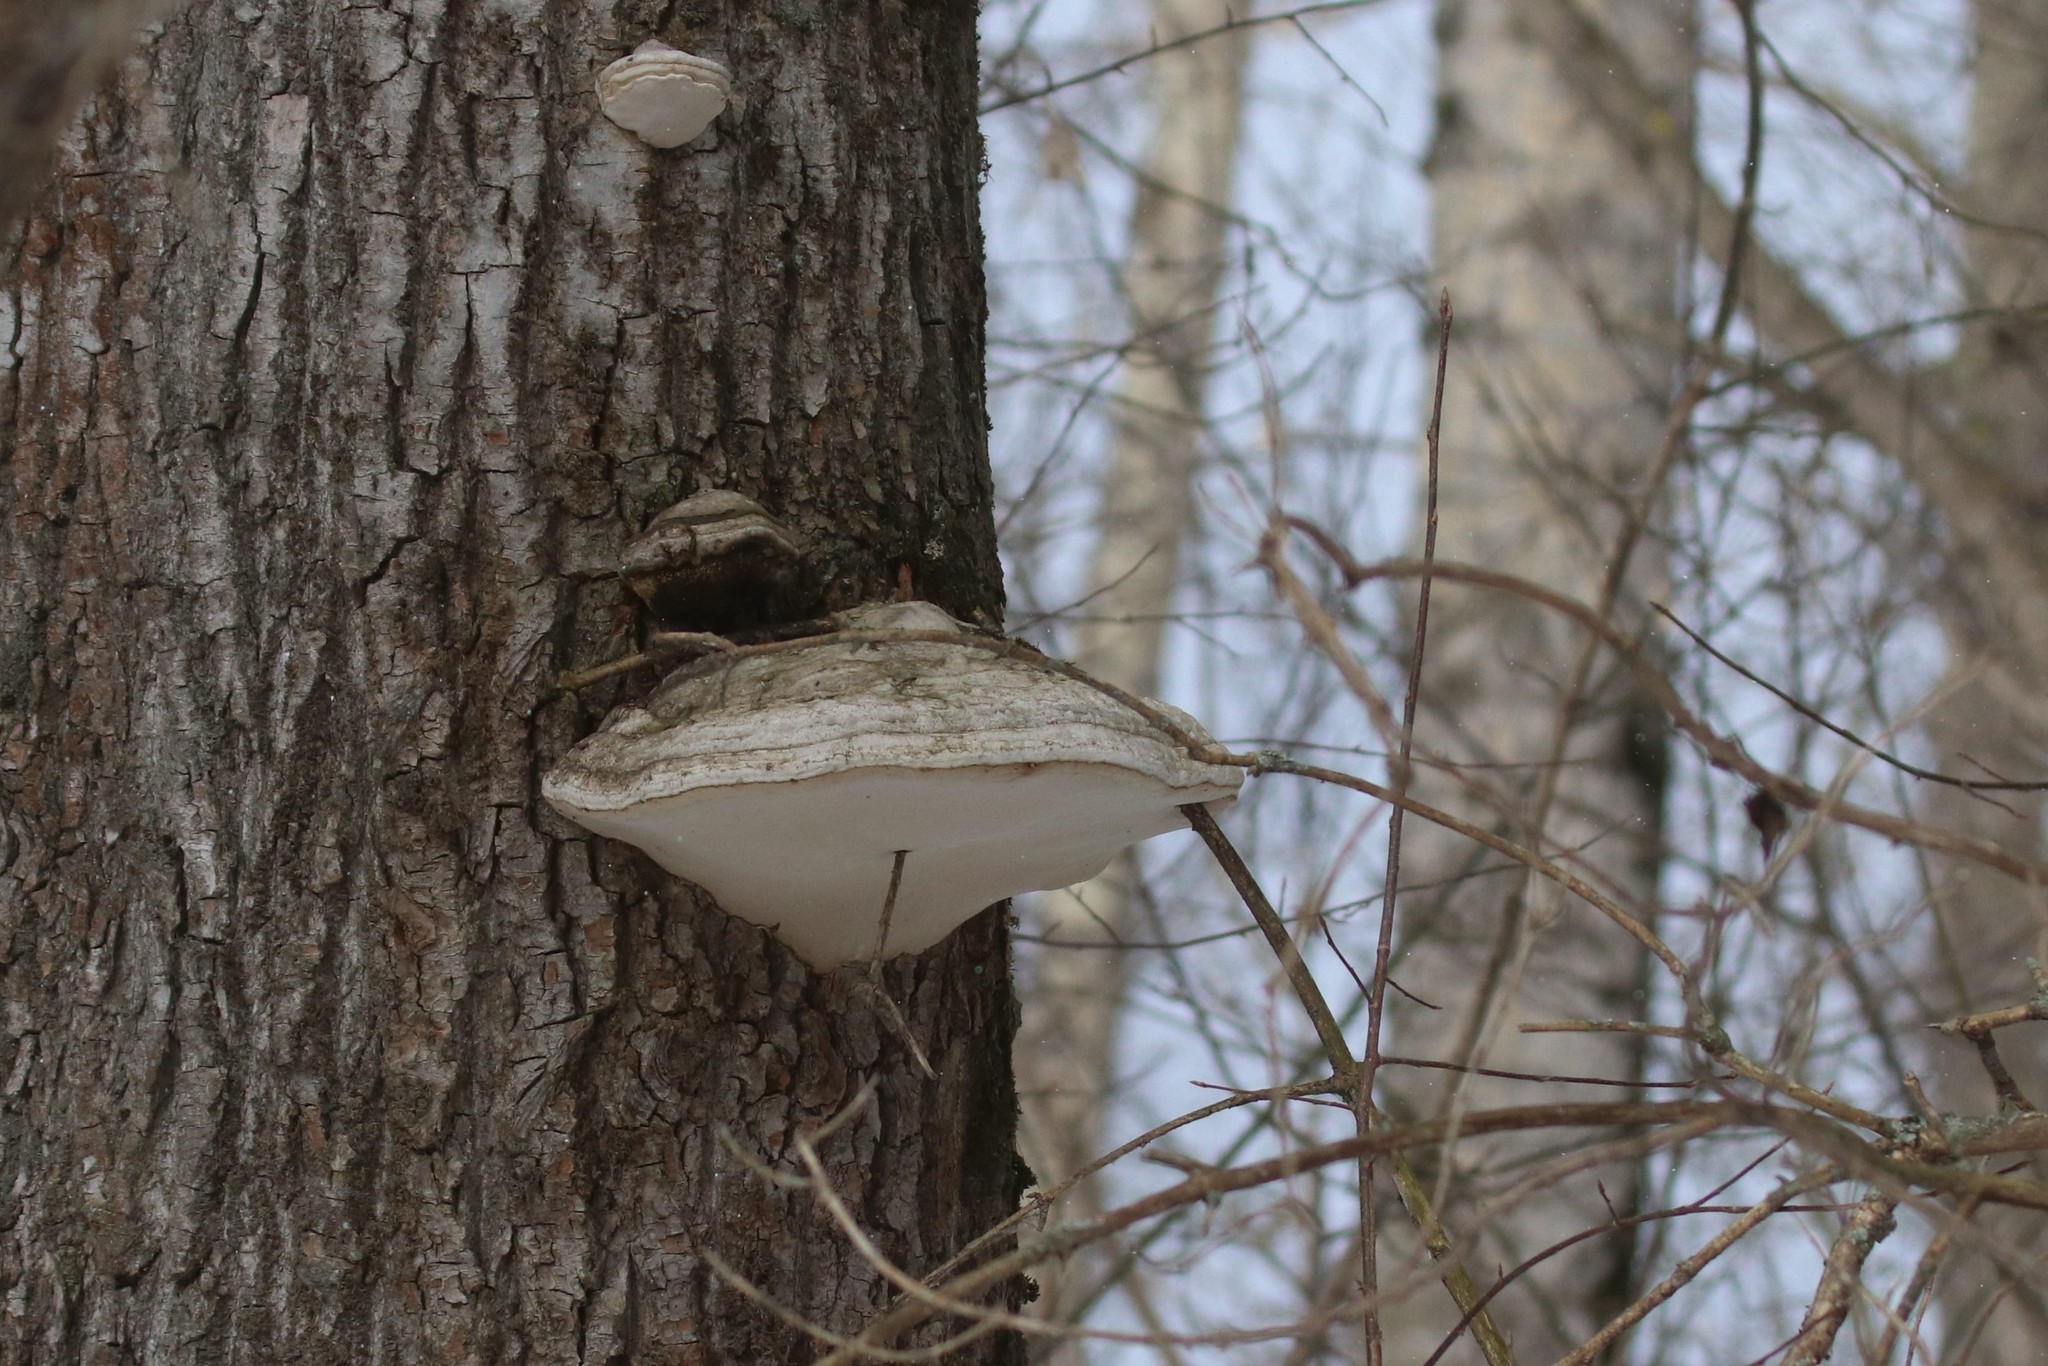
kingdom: Fungi
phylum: Basidiomycota
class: Agaricomycetes
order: Polyporales
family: Polyporaceae
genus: Fomes
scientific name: Fomes fomentarius
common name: Hoof fungus
